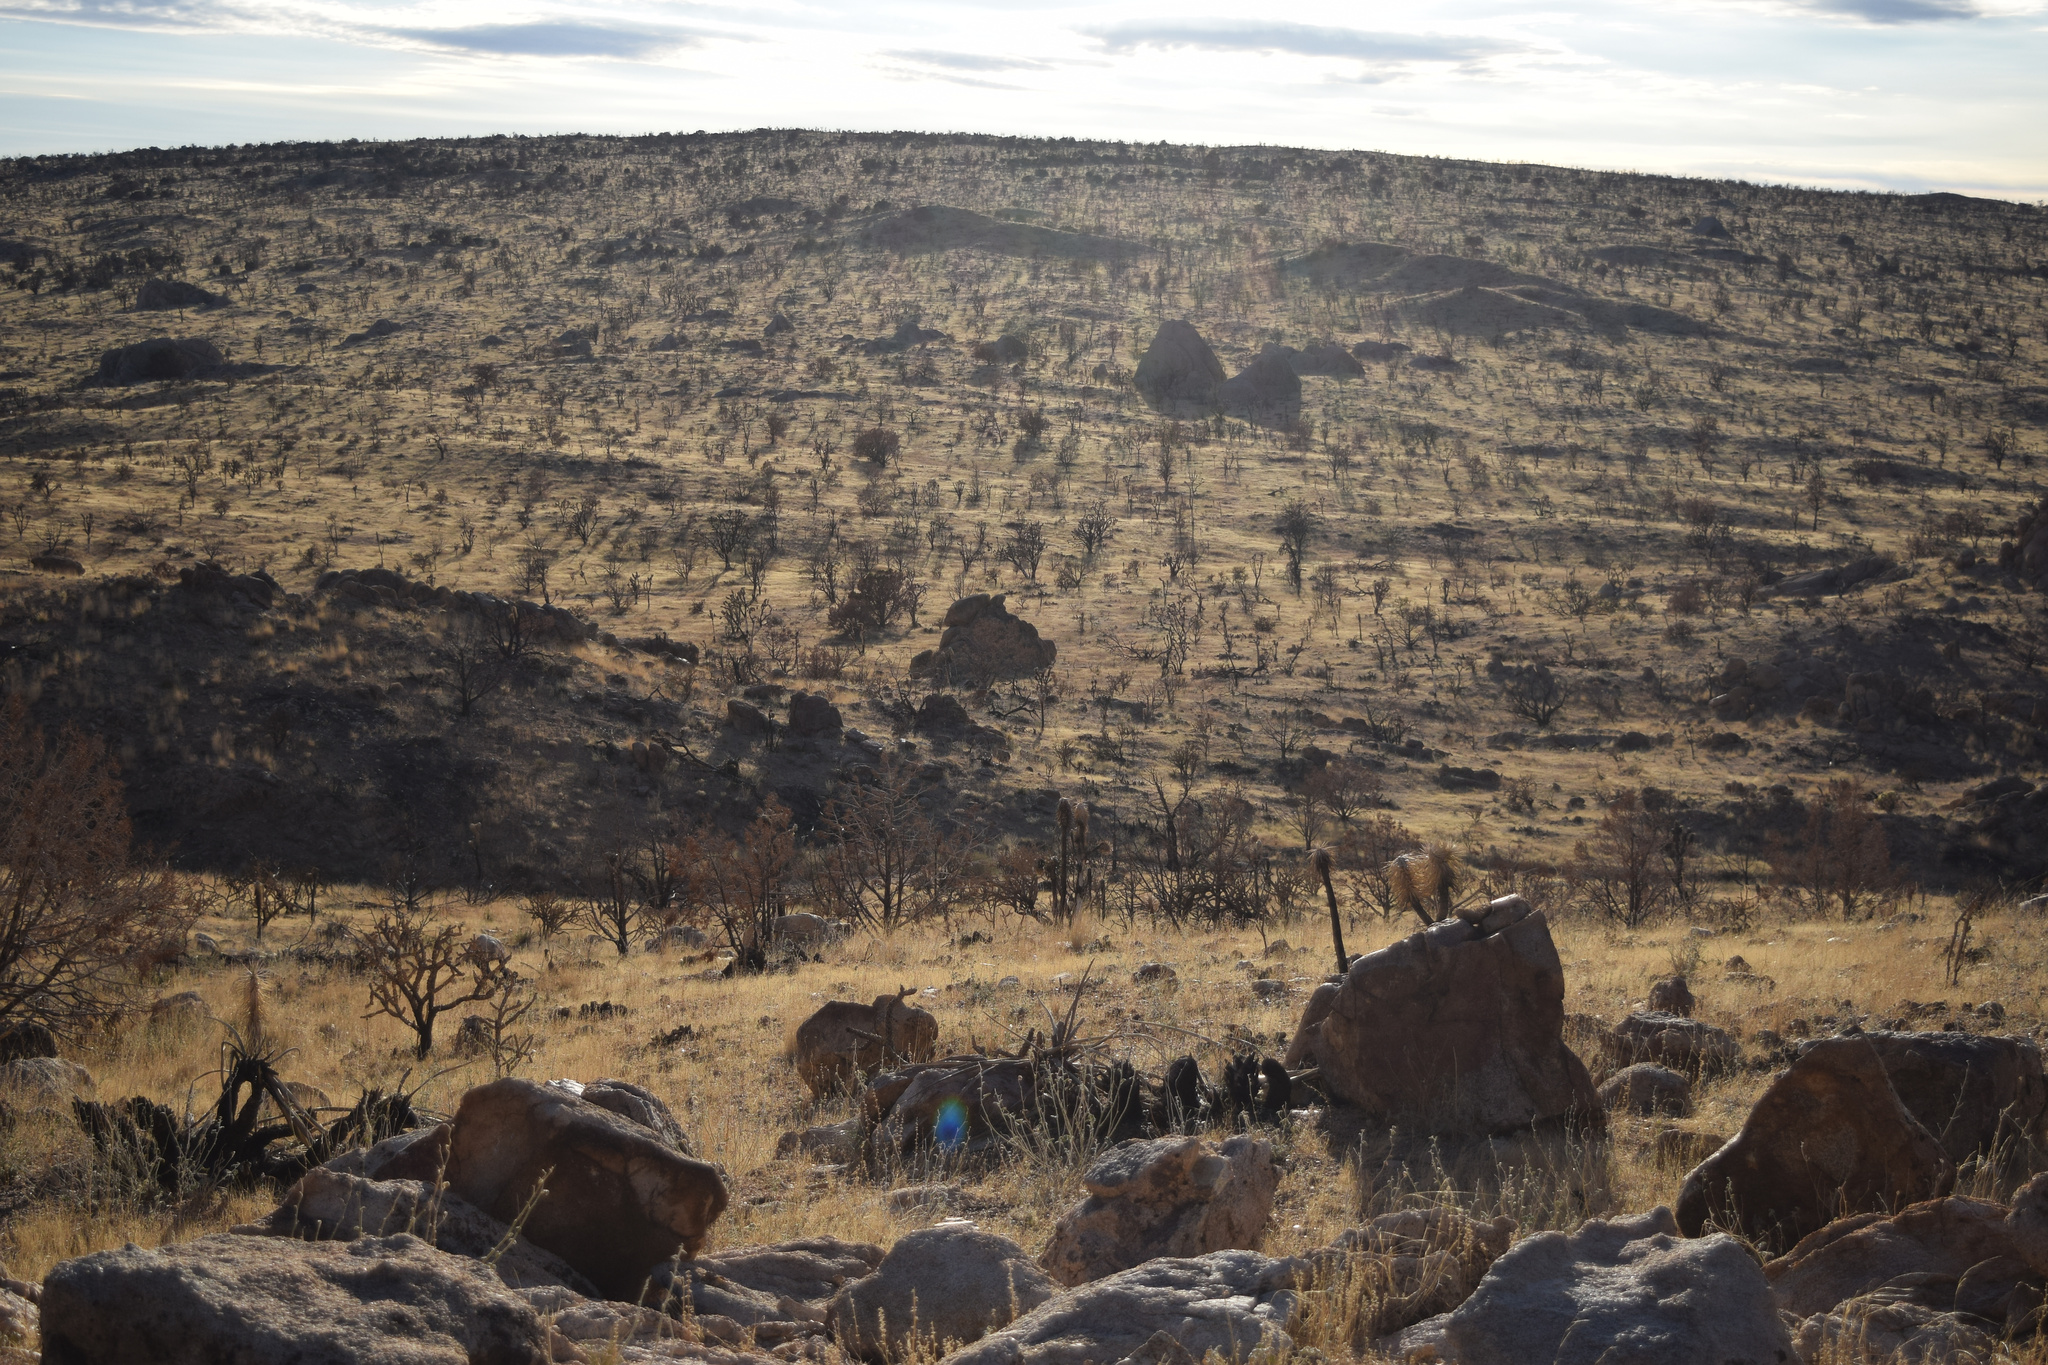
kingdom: Plantae
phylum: Tracheophyta
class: Liliopsida
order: Asparagales
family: Asparagaceae
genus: Yucca
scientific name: Yucca brevifolia
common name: Joshua tree
